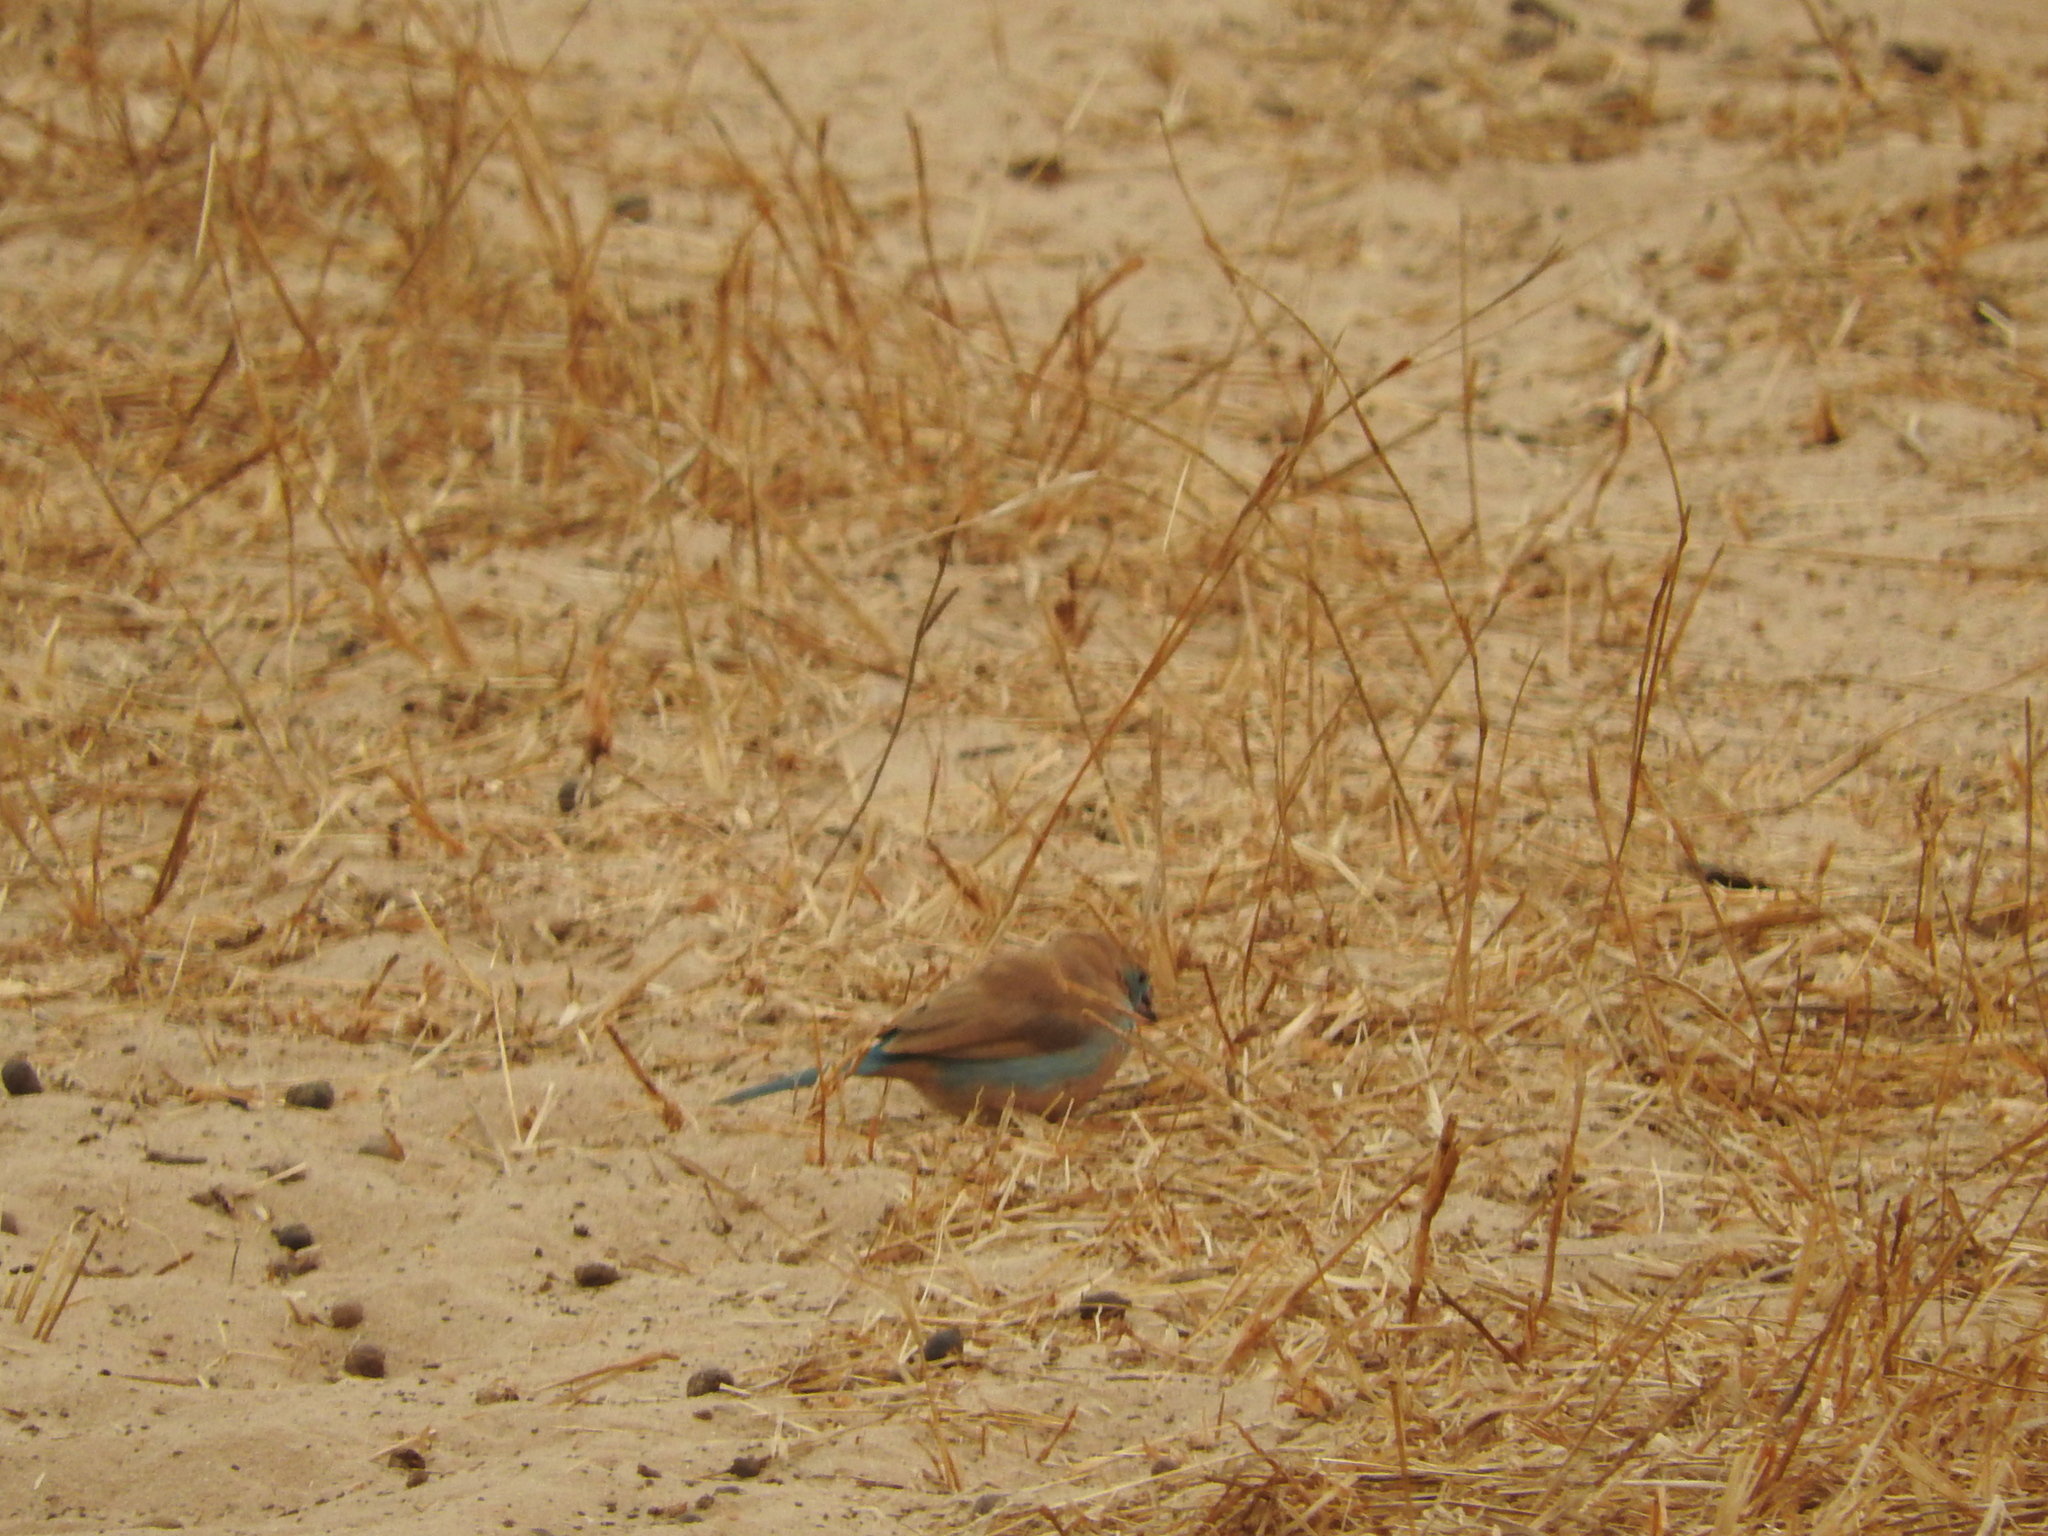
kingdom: Animalia
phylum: Chordata
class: Aves
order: Passeriformes
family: Estrildidae
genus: Uraeginthus
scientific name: Uraeginthus bengalus
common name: Red-cheeked cordon-bleu
